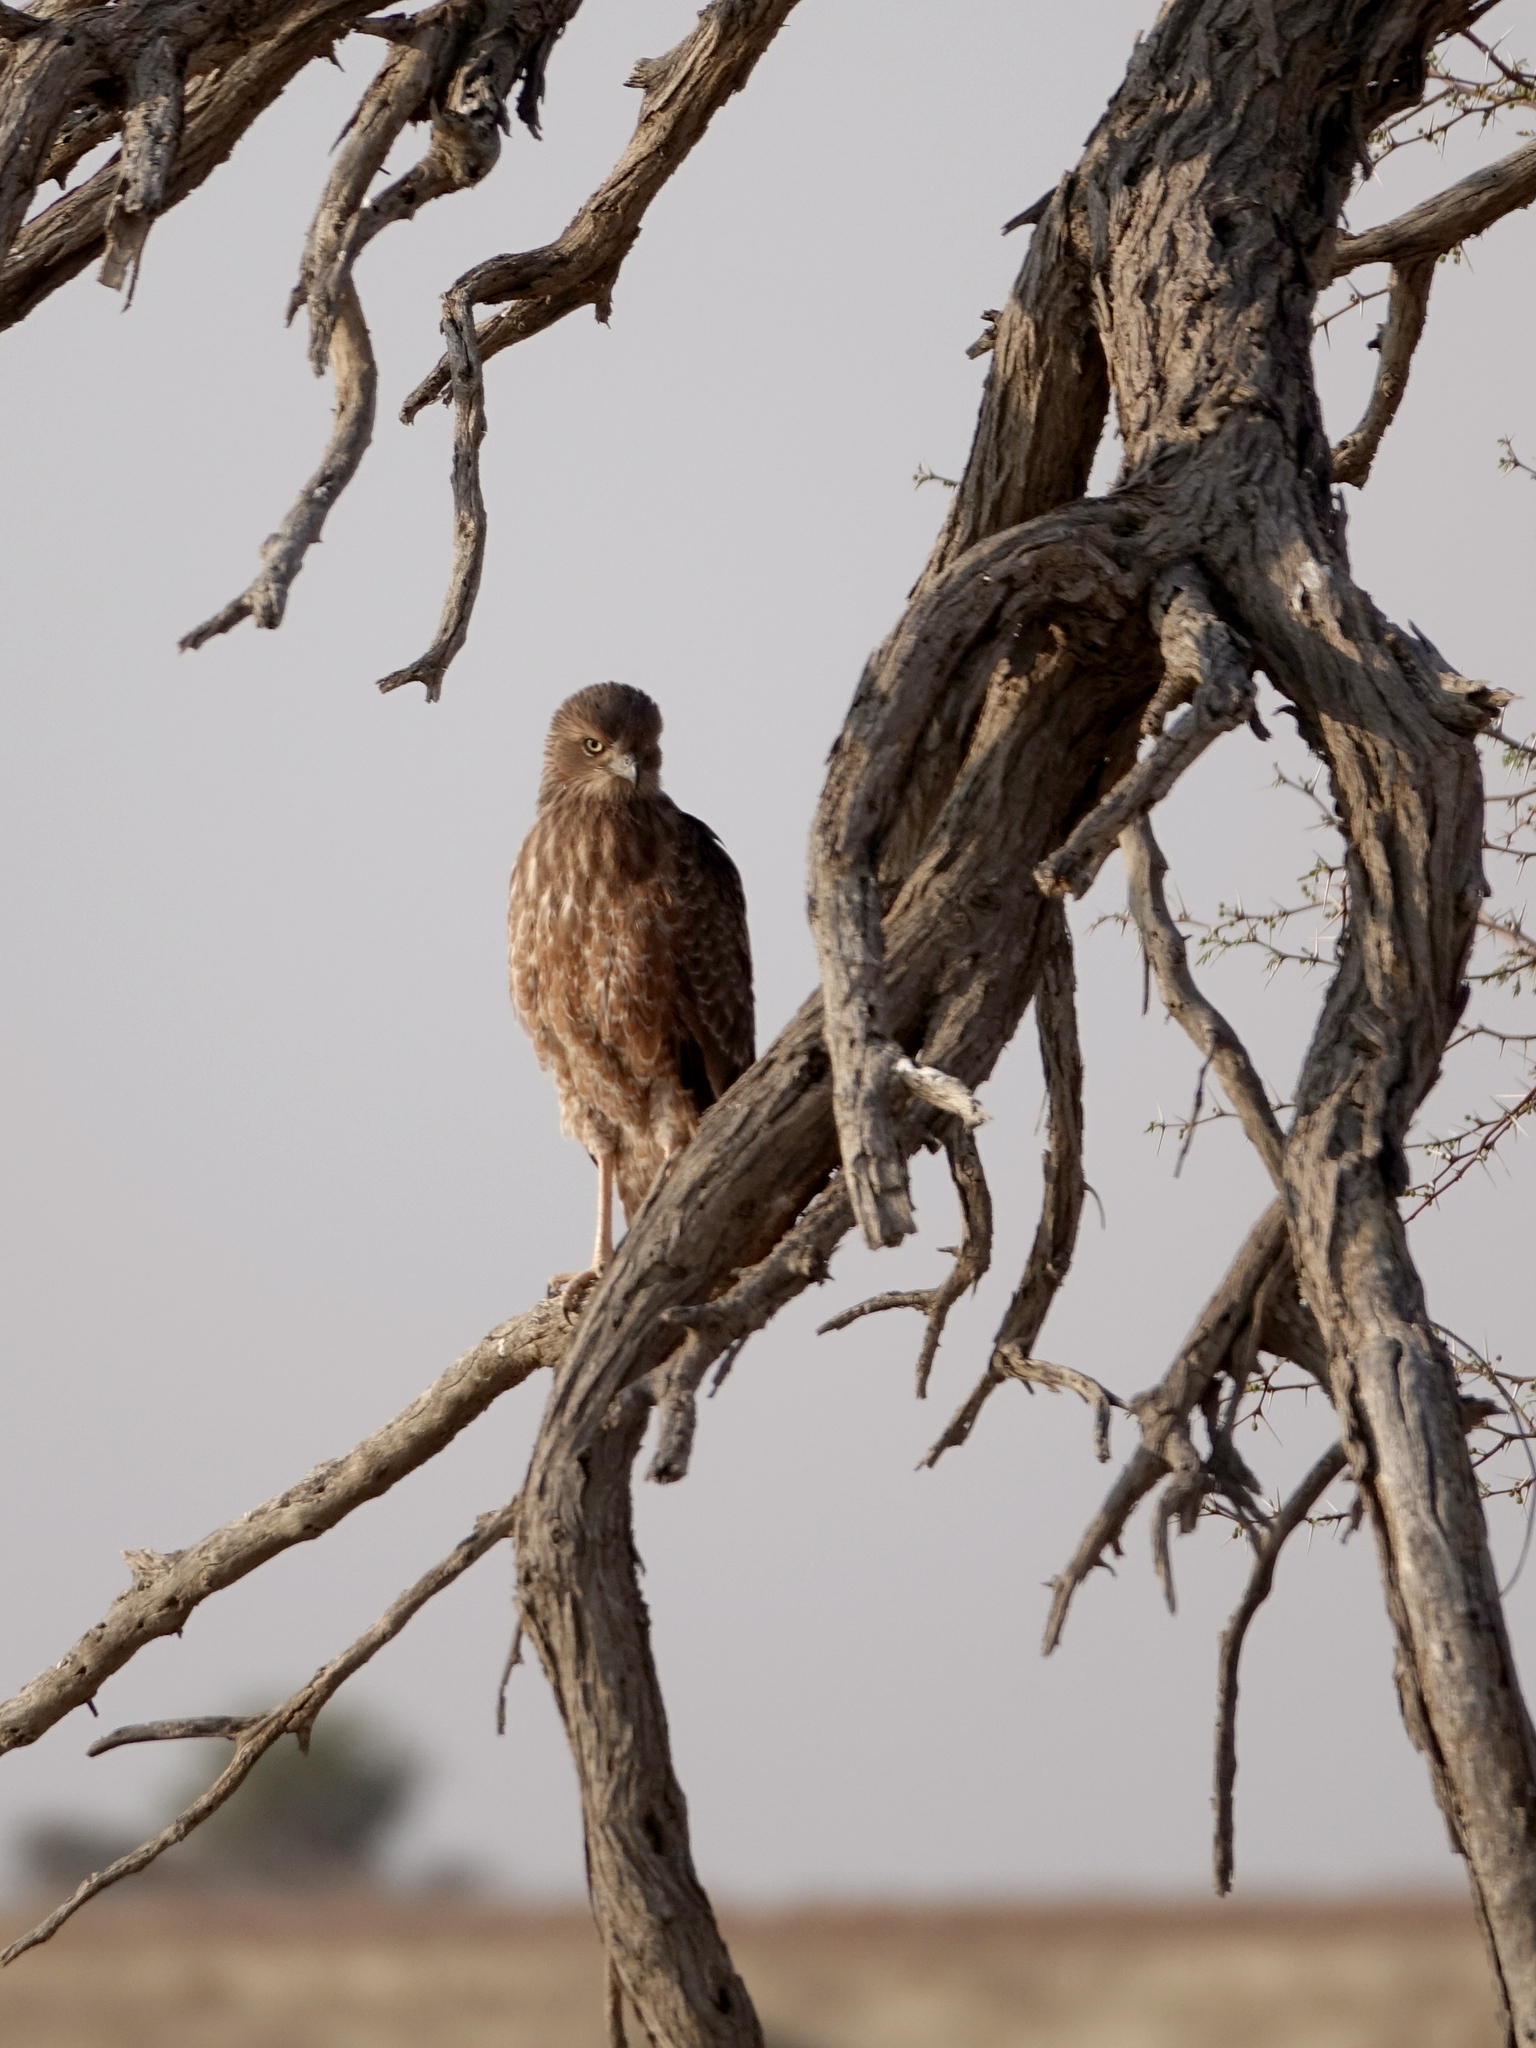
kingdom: Animalia
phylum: Chordata
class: Aves
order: Accipitriformes
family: Accipitridae
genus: Melierax
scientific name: Melierax canorus
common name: Pale chanting-goshawk
